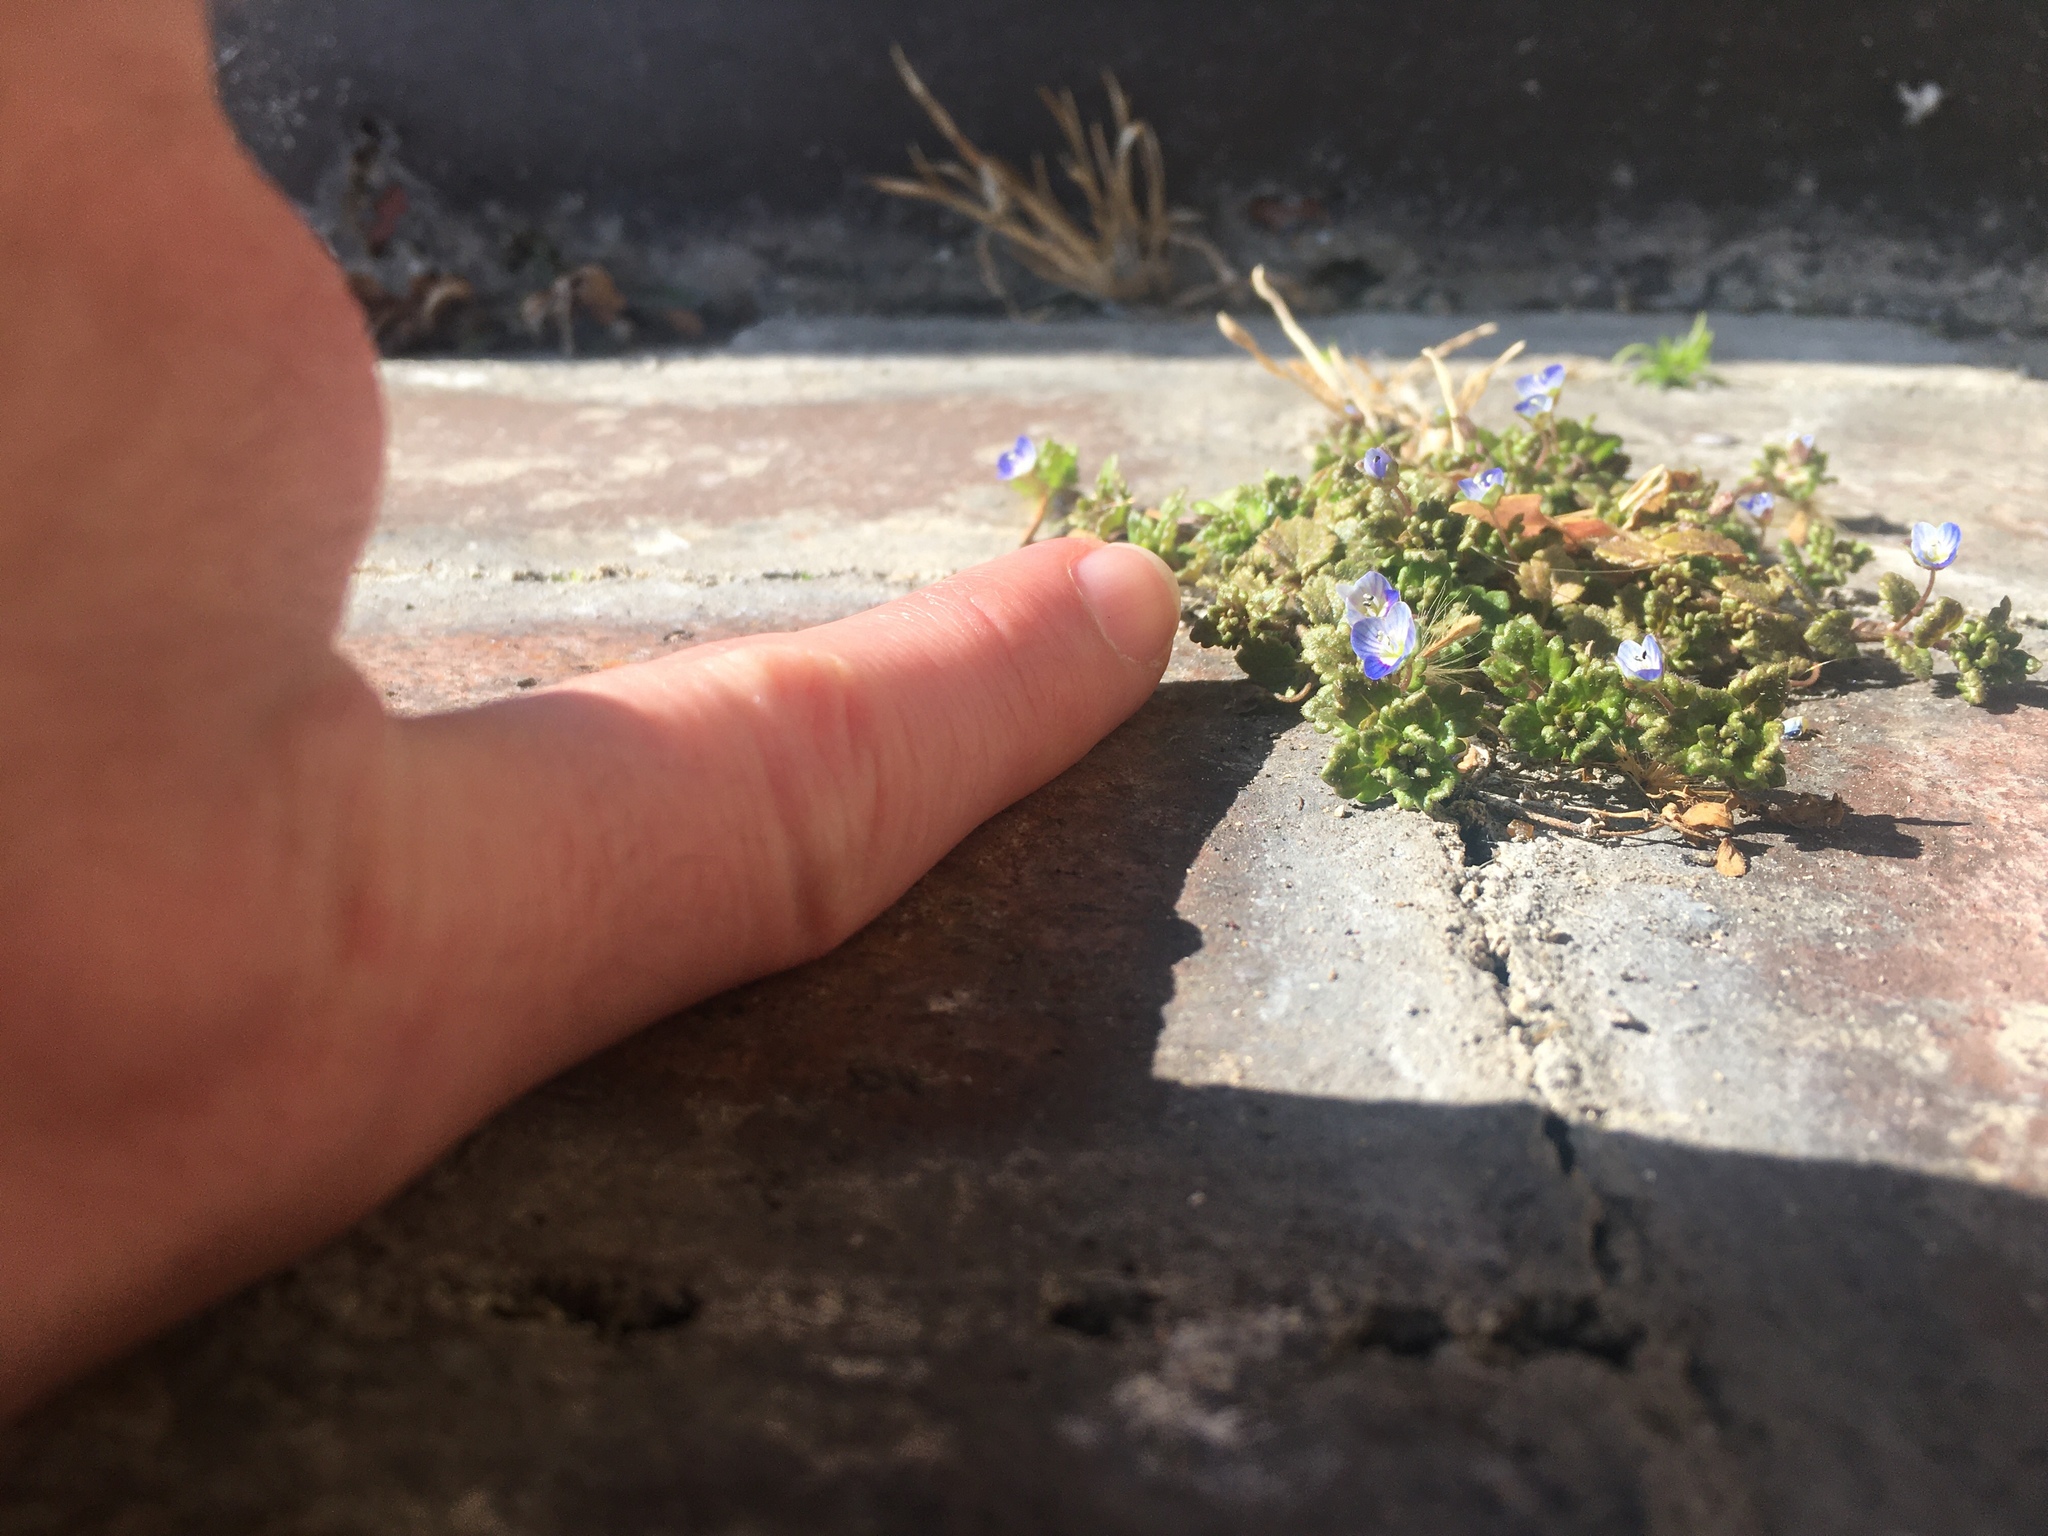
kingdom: Plantae
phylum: Tracheophyta
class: Magnoliopsida
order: Lamiales
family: Plantaginaceae
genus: Veronica
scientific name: Veronica polita
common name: Grey field-speedwell
